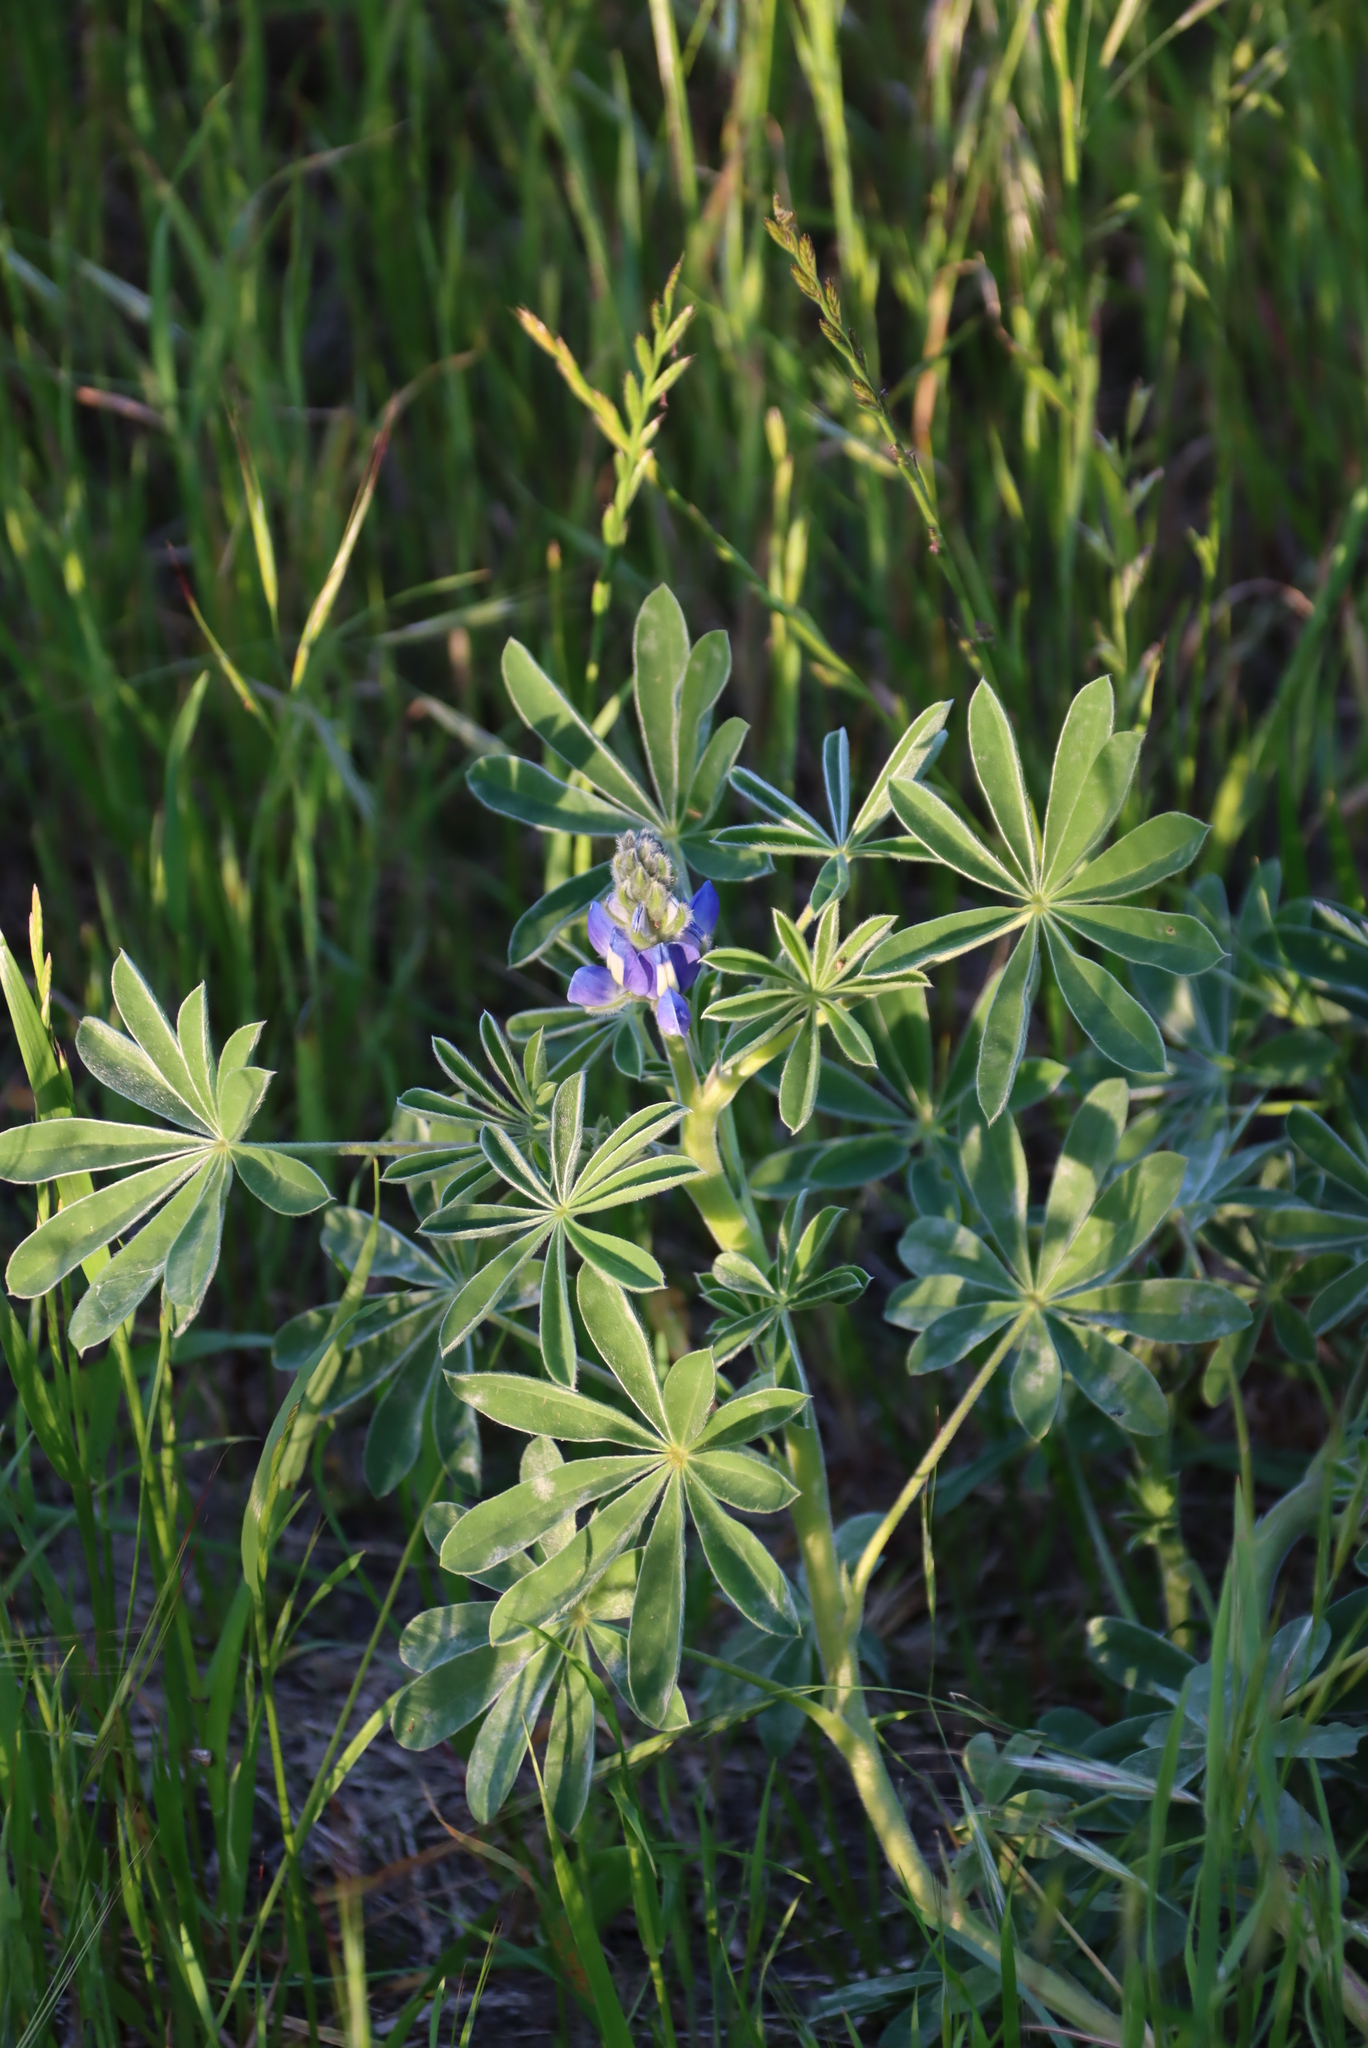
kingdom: Plantae
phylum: Tracheophyta
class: Magnoliopsida
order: Fabales
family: Fabaceae
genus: Lupinus
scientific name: Lupinus cosentinii
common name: Hairy blue lupin
